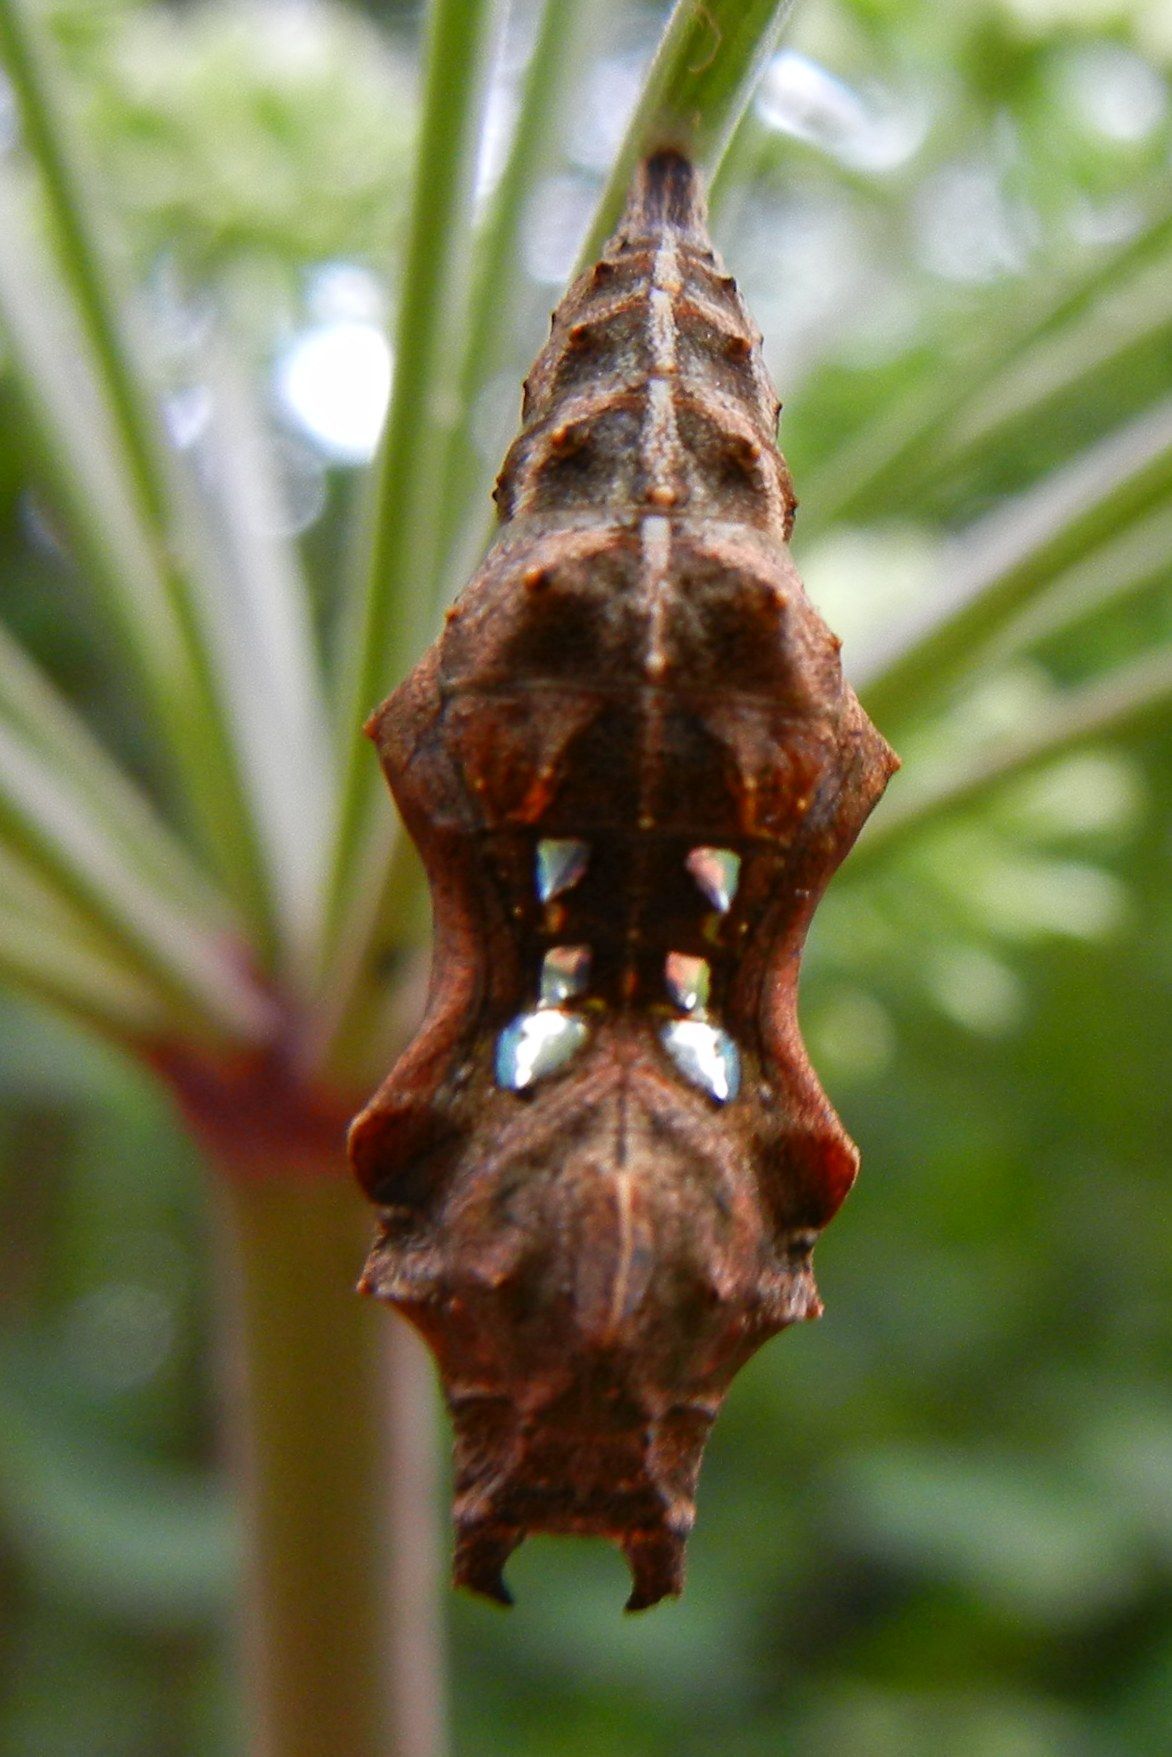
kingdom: Animalia
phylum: Arthropoda
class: Insecta
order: Lepidoptera
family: Nymphalidae
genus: Polygonia
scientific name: Polygonia c-album
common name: Comma
